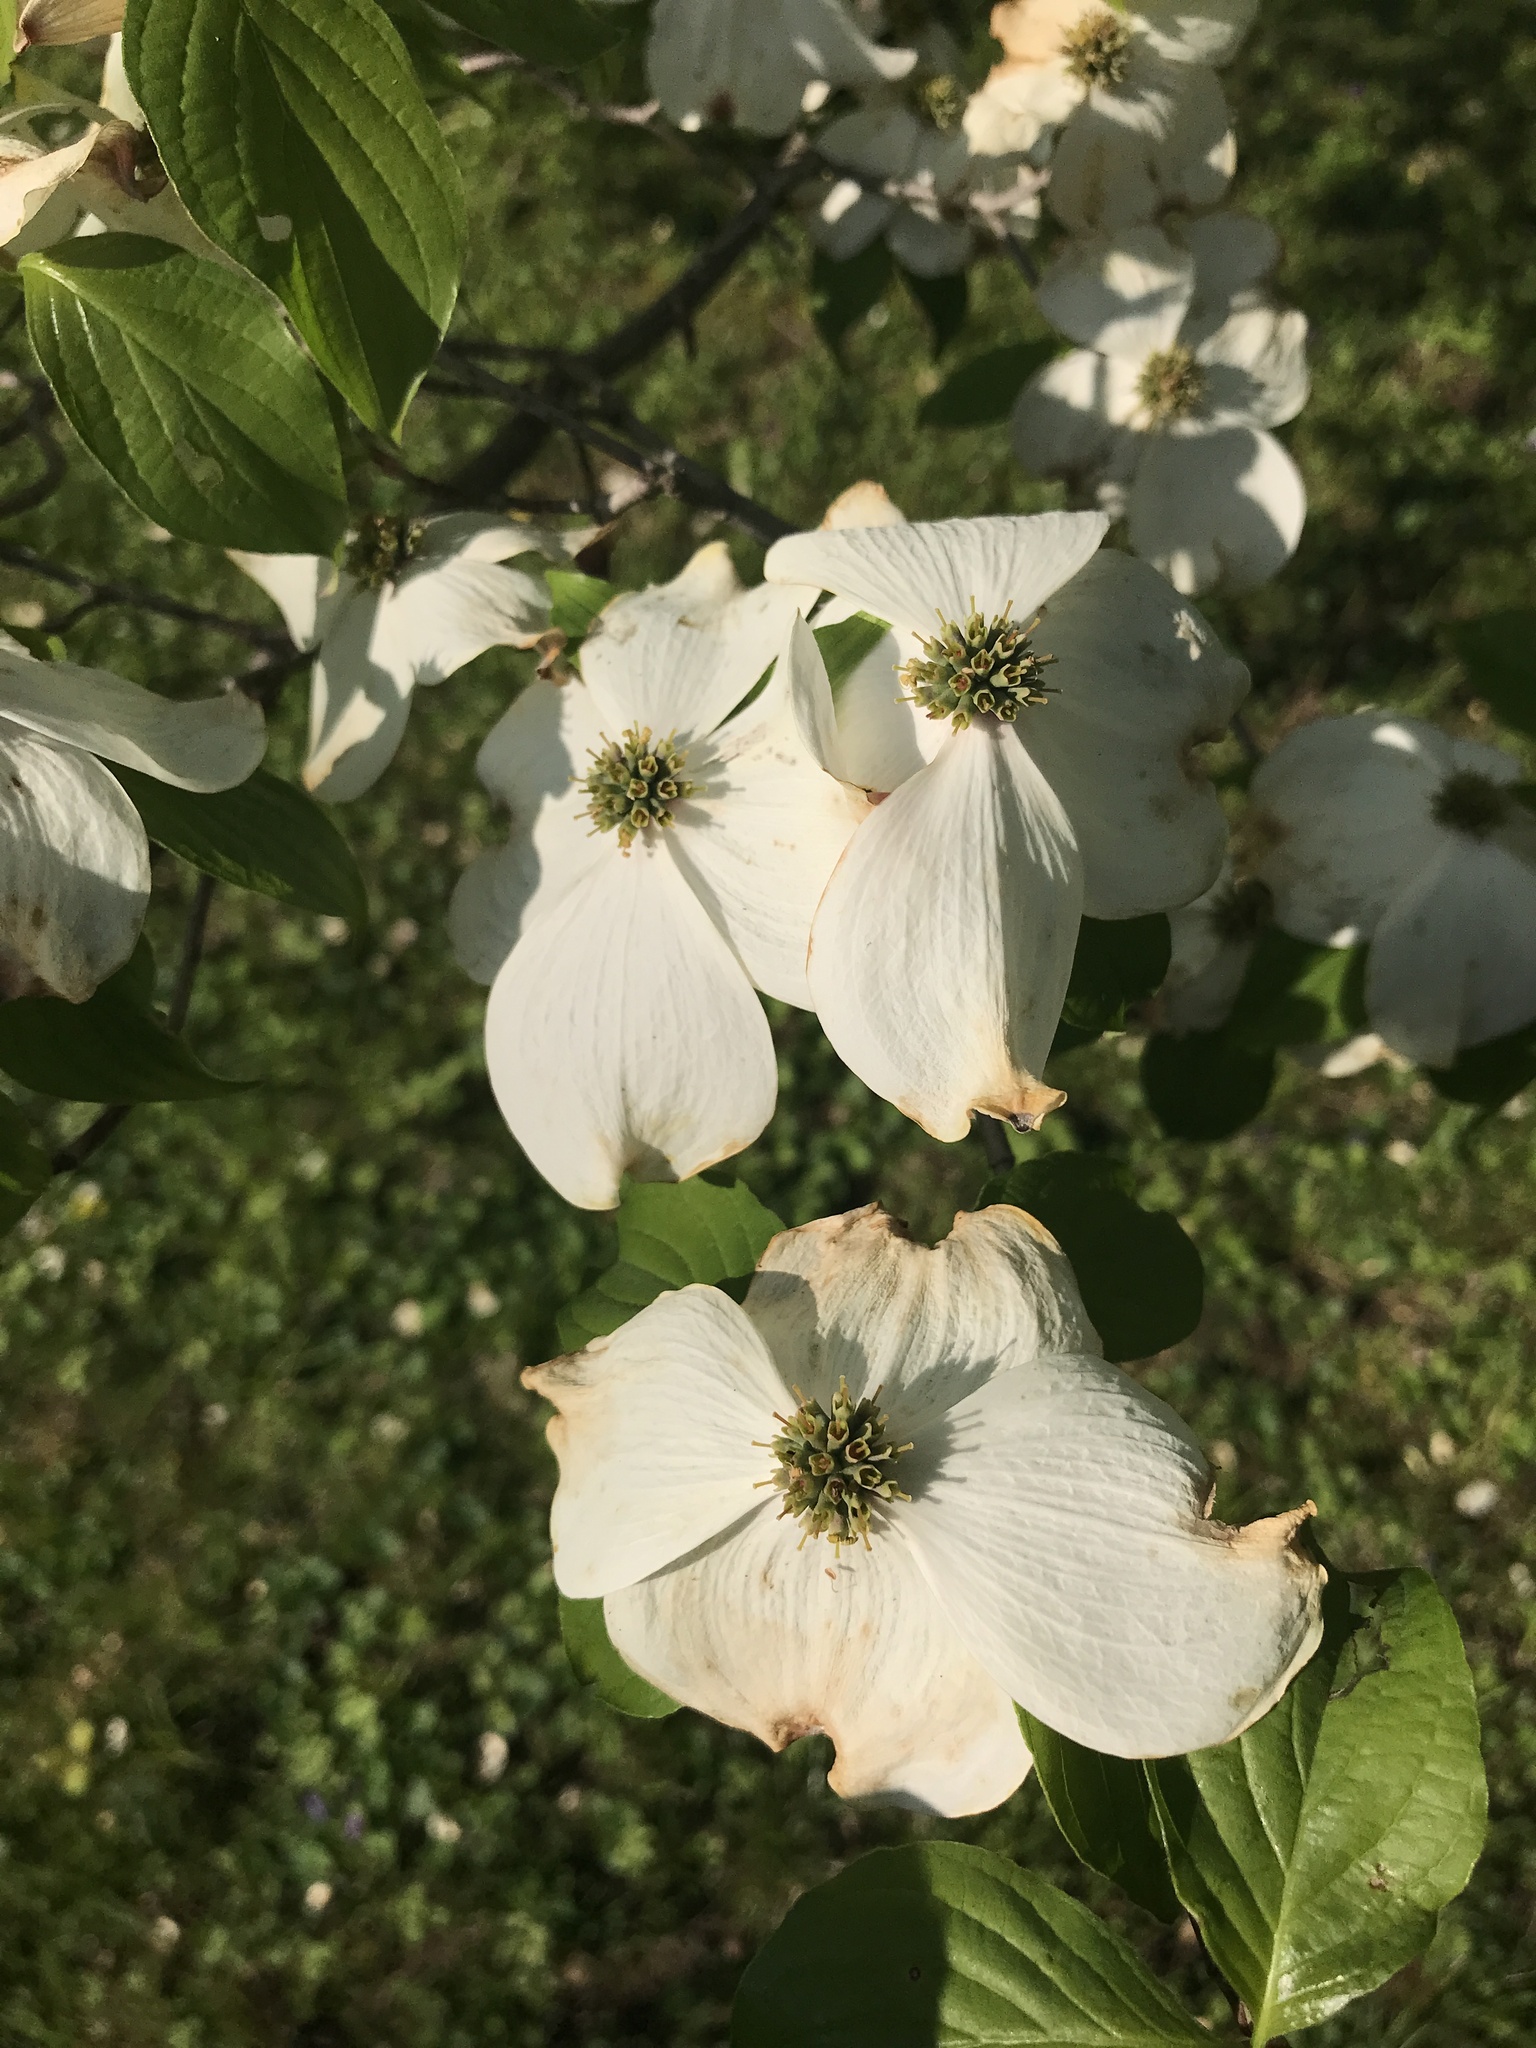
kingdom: Plantae
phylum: Tracheophyta
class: Magnoliopsida
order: Cornales
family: Cornaceae
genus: Cornus
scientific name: Cornus florida
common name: Flowering dogwood
